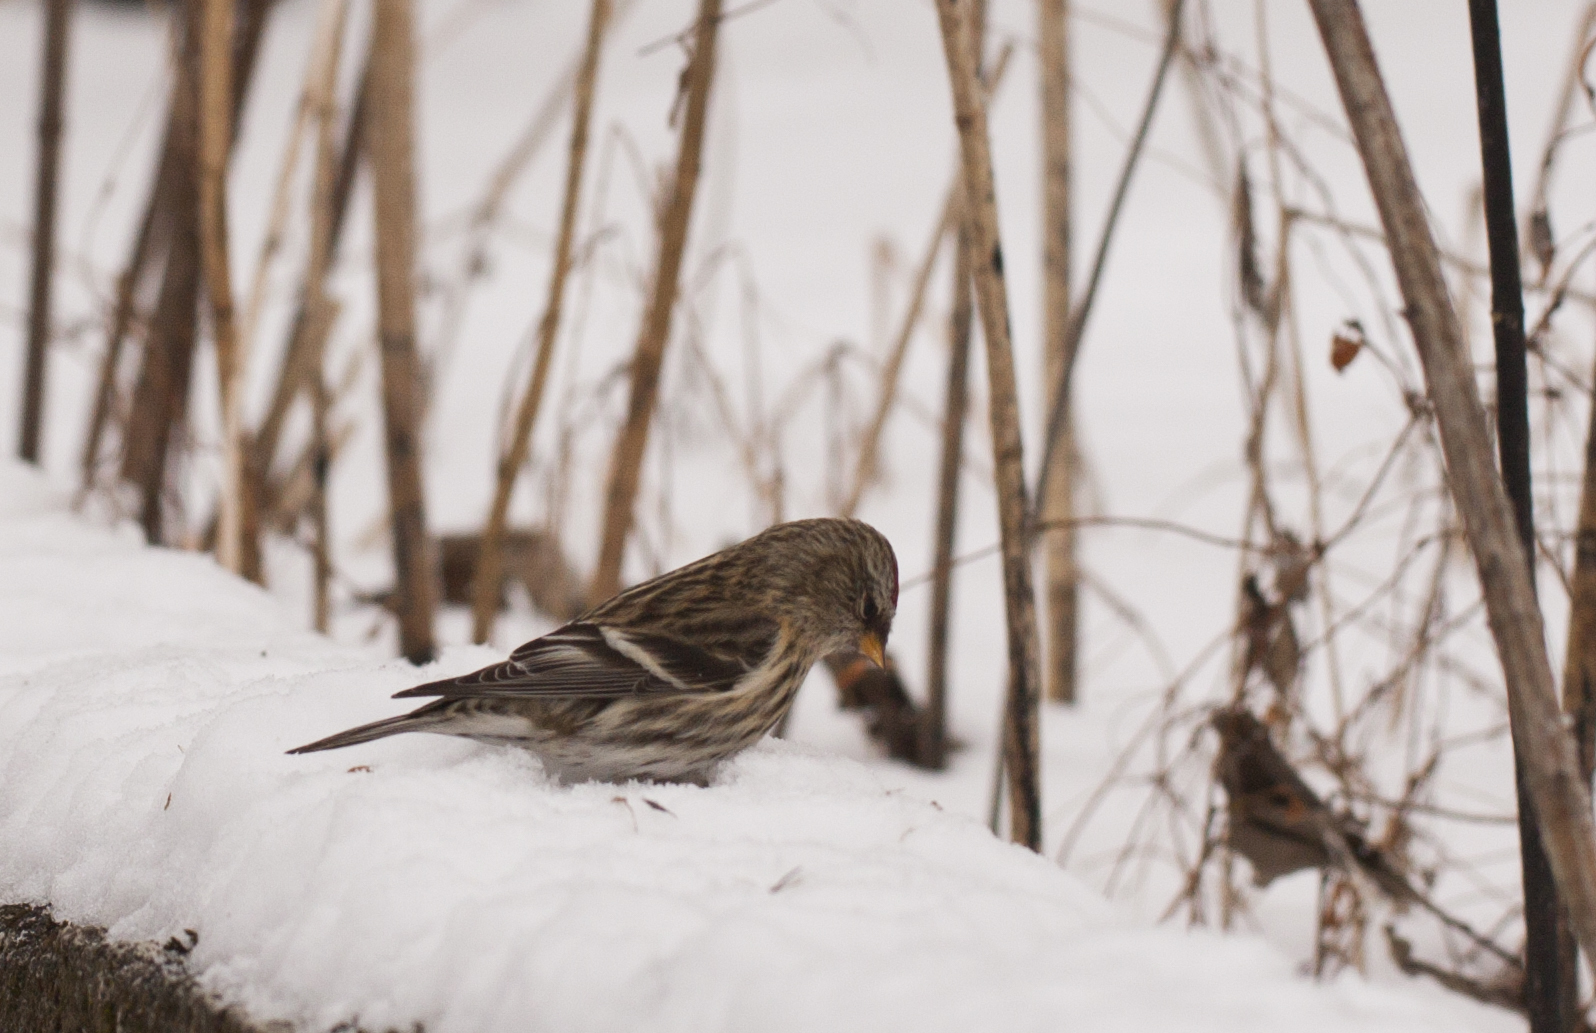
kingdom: Animalia
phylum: Chordata
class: Aves
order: Passeriformes
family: Fringillidae
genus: Acanthis
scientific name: Acanthis flammea
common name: Common redpoll
